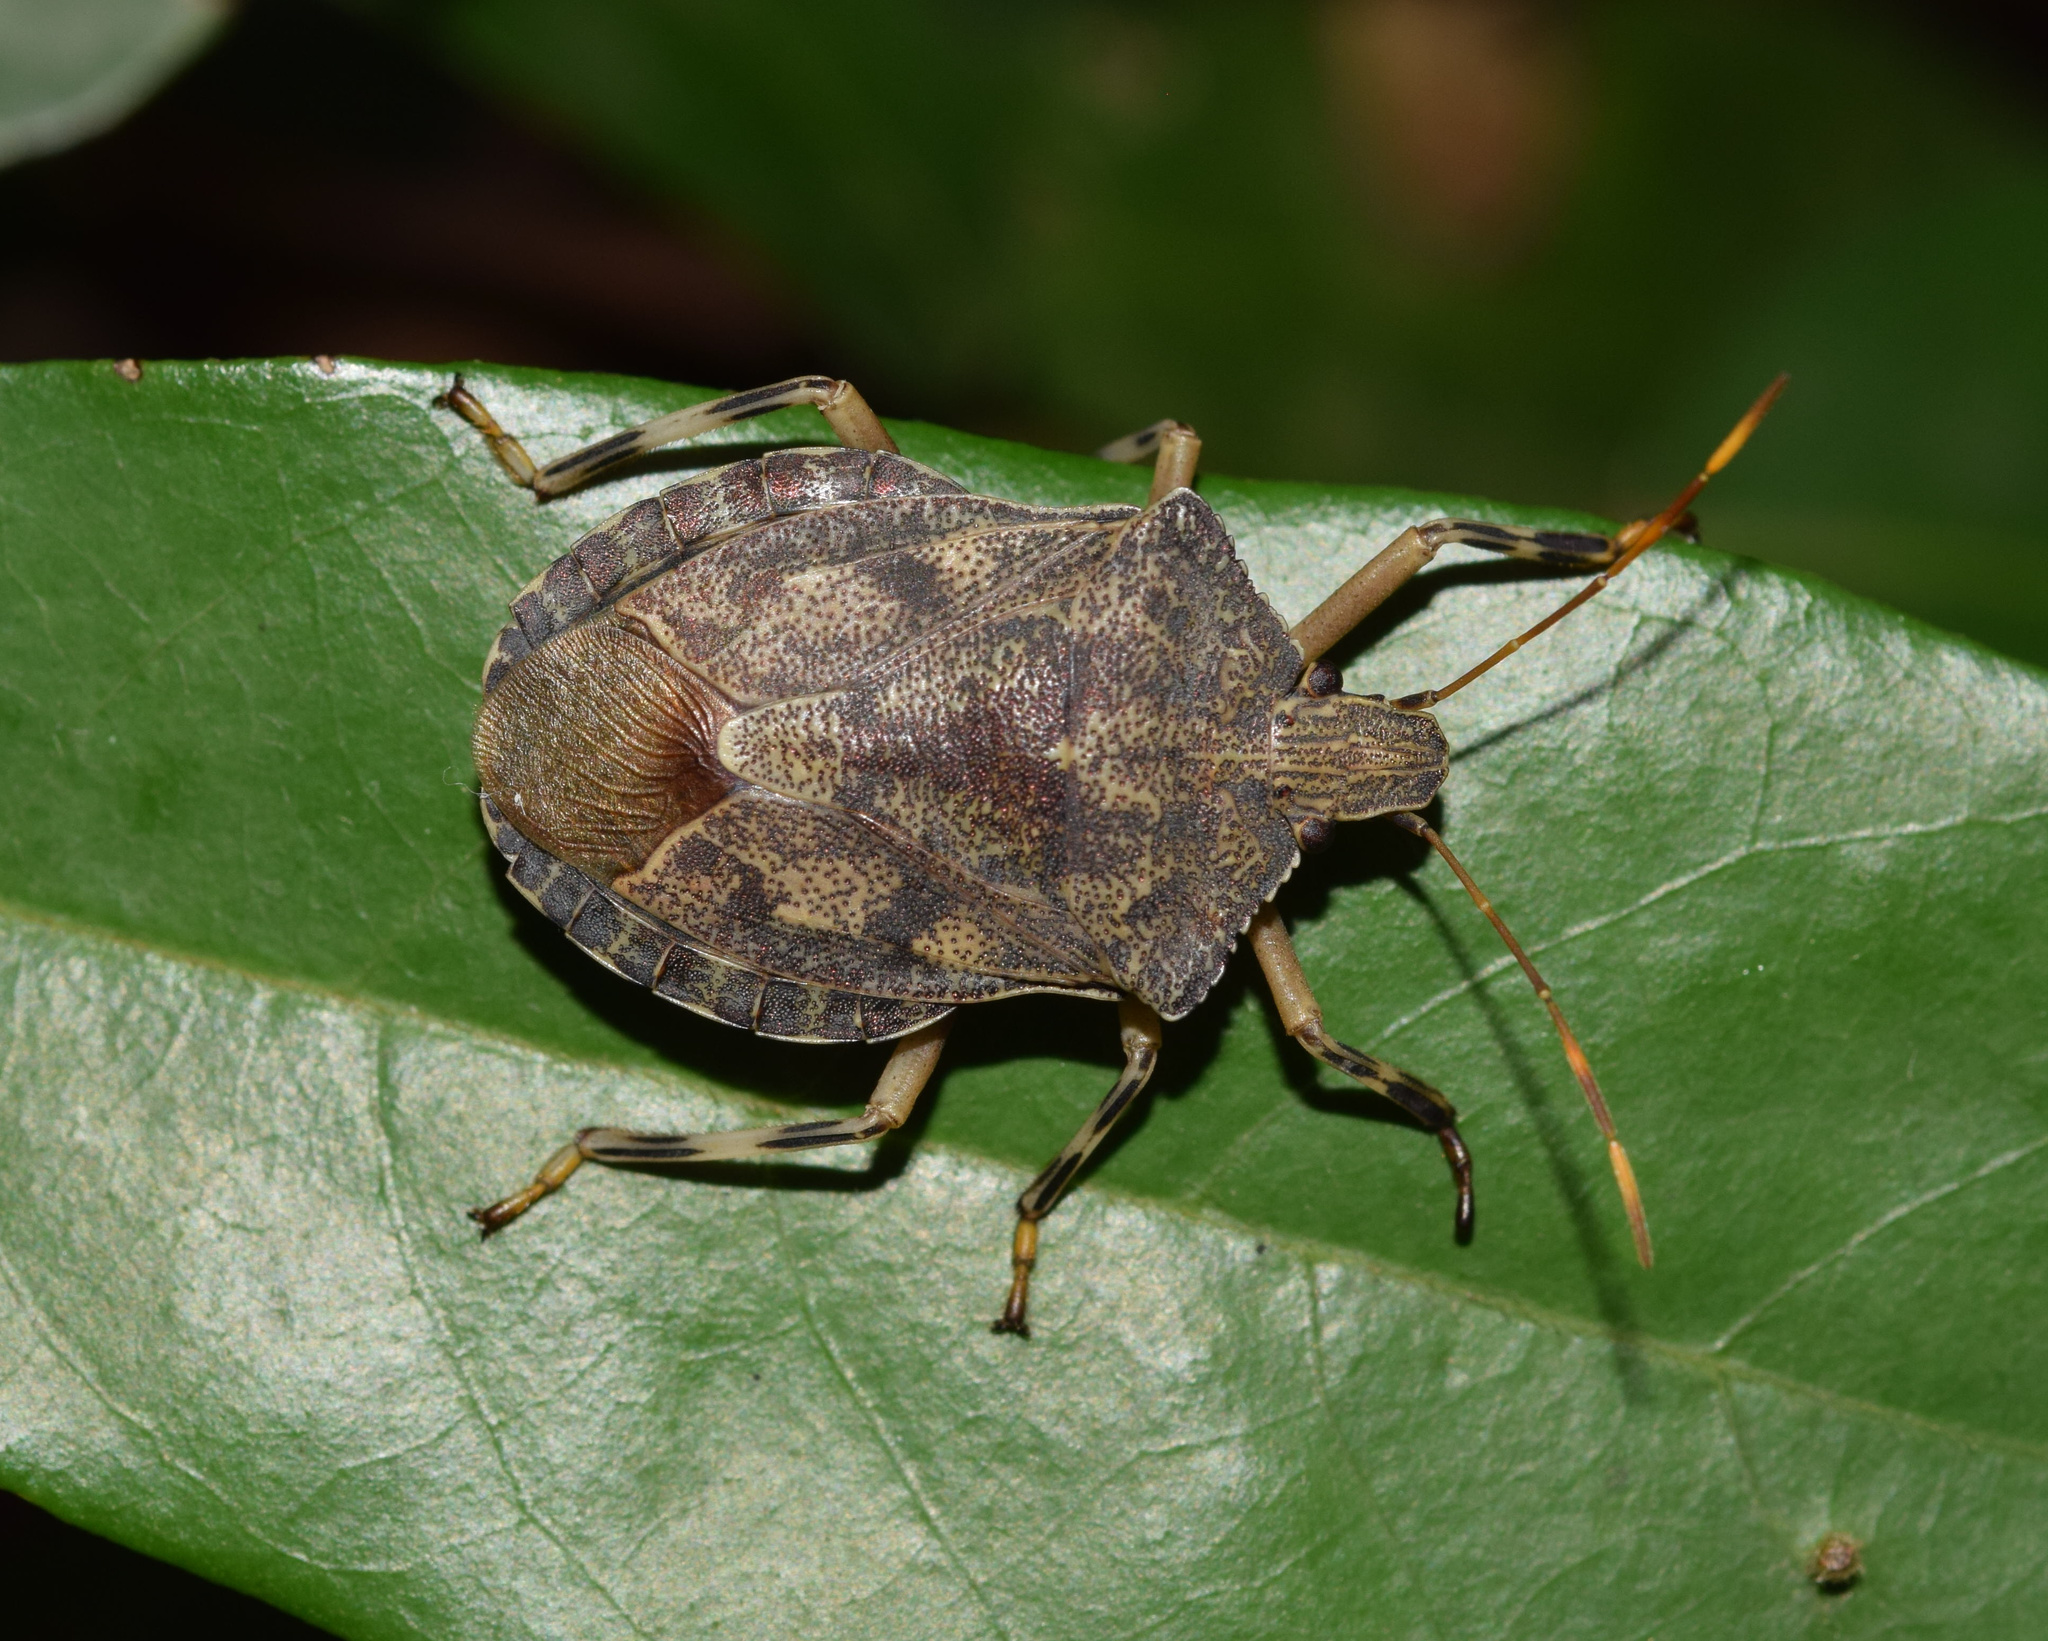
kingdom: Animalia
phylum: Arthropoda
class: Insecta
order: Hemiptera
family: Pentatomidae
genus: Coenomorpha
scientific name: Coenomorpha
